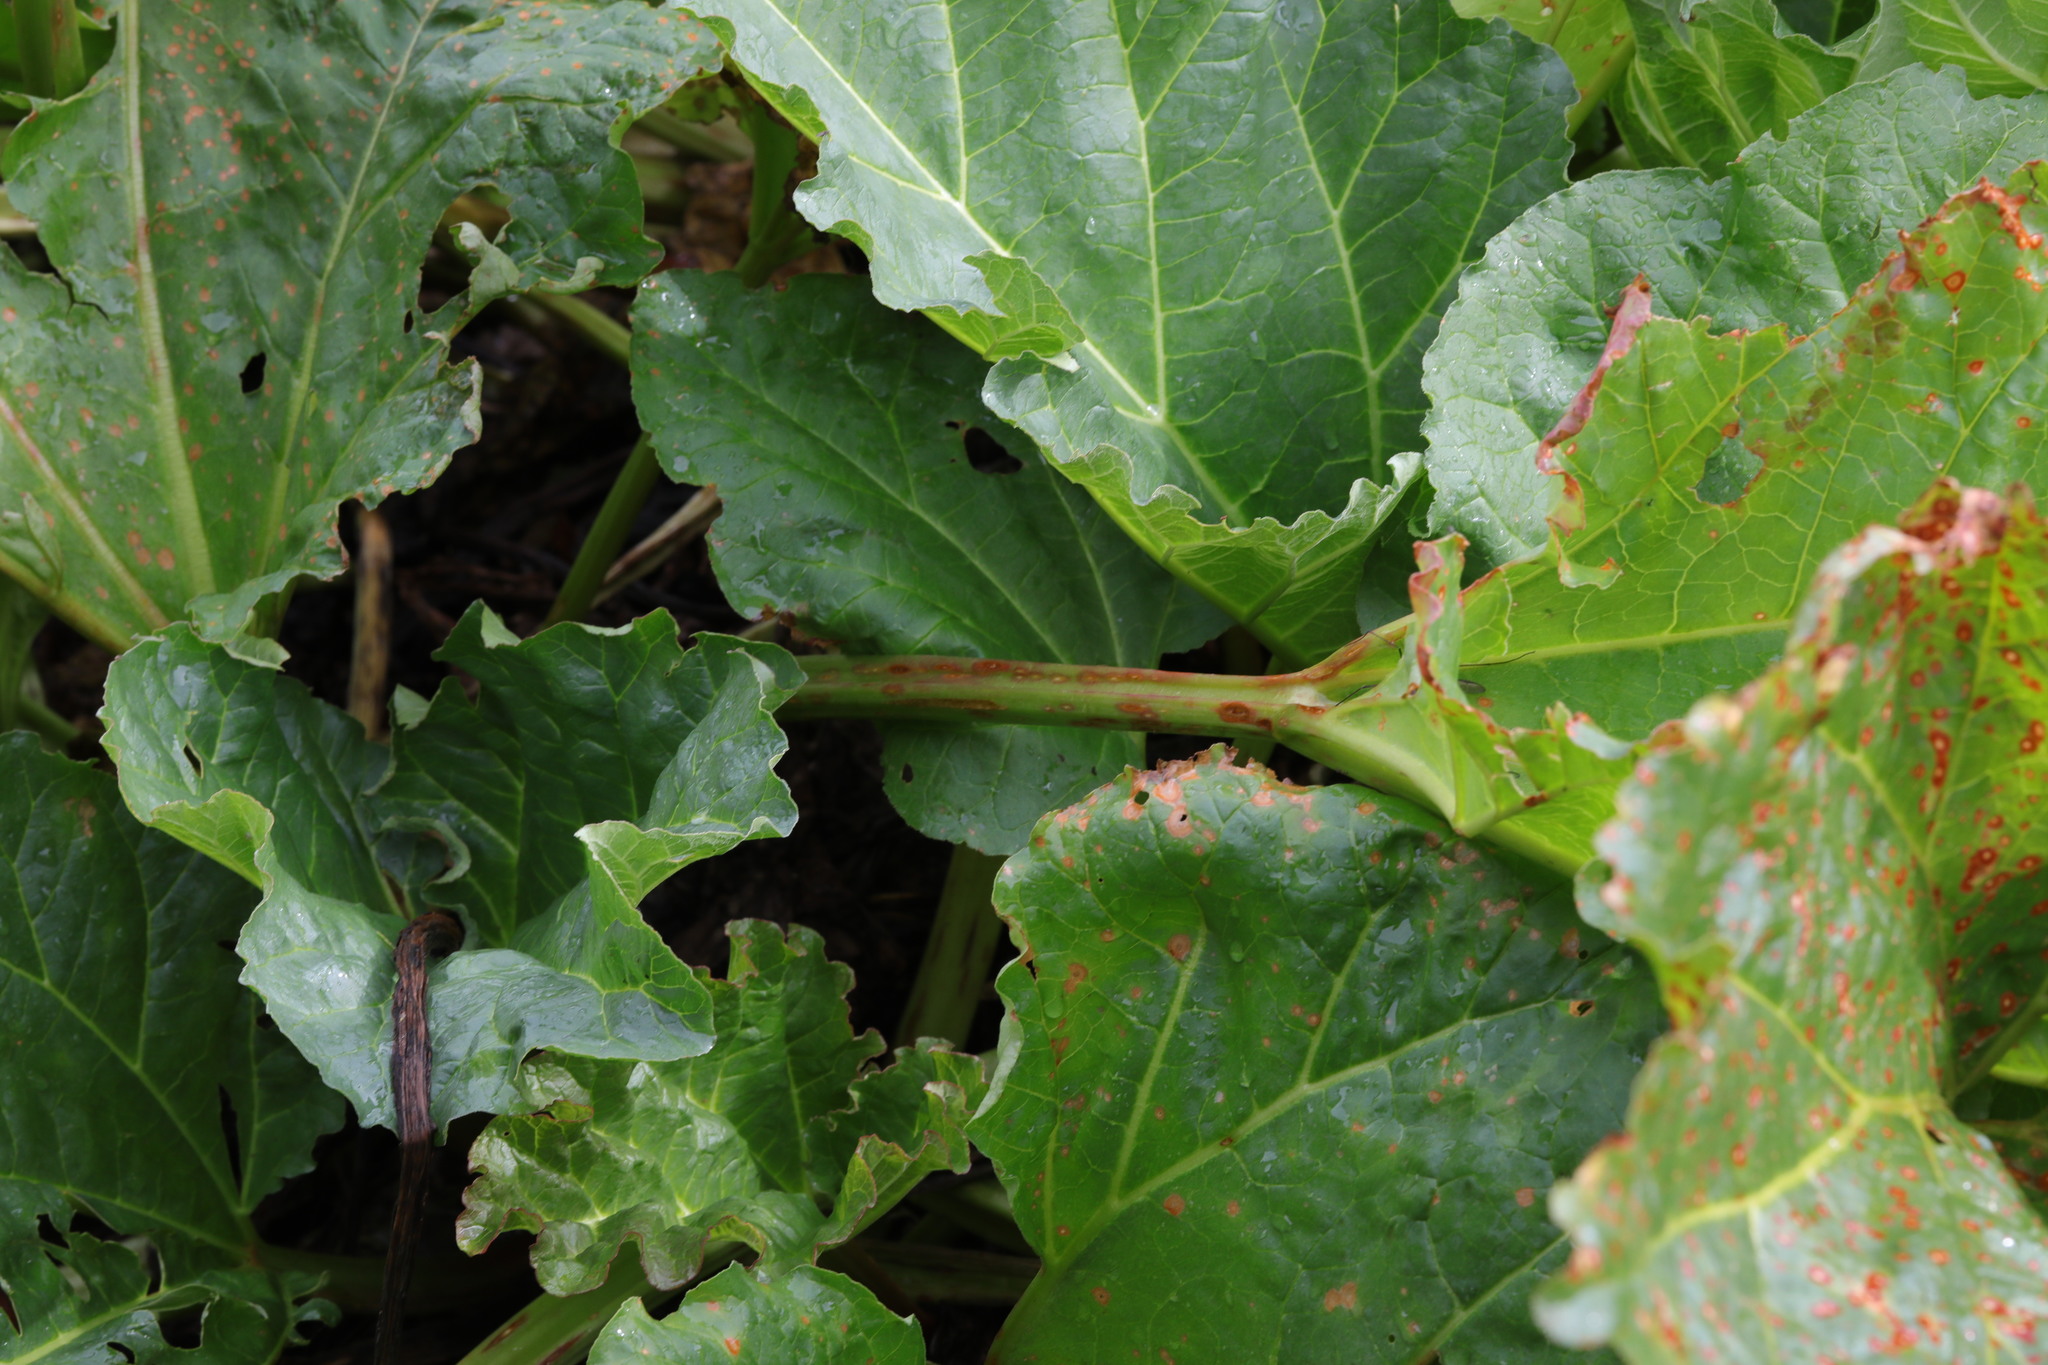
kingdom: Plantae
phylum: Tracheophyta
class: Magnoliopsida
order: Caryophyllales
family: Polygonaceae
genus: Rheum
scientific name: Rheum rhabarbarum
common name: Garden rhubarb
